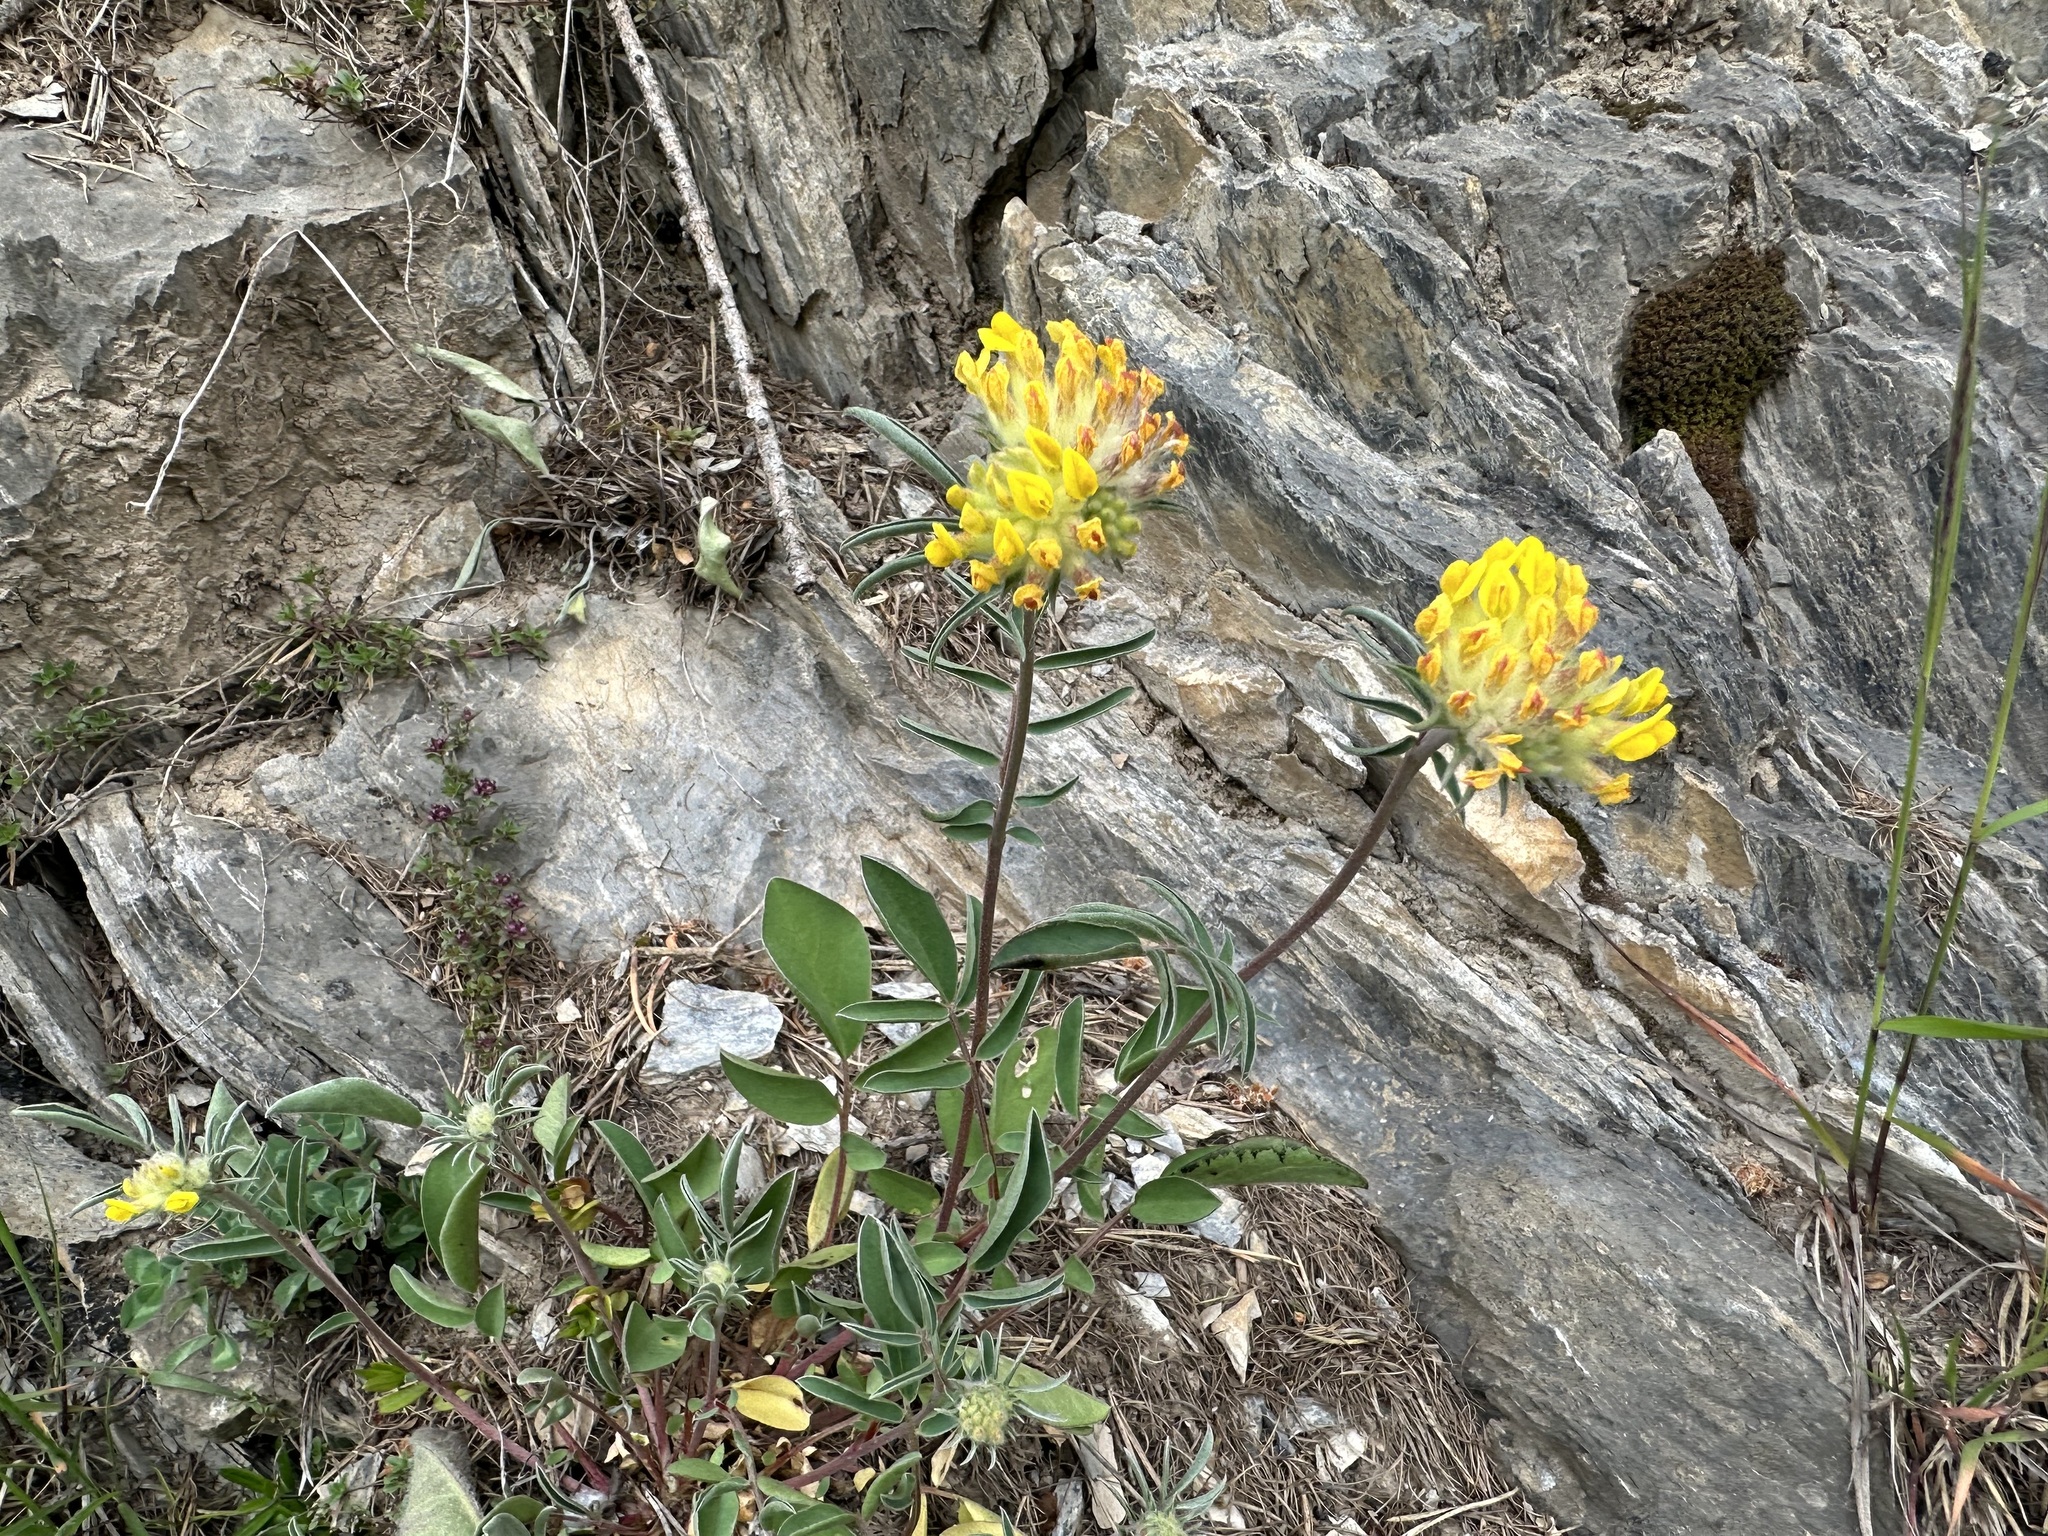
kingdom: Plantae
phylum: Tracheophyta
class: Magnoliopsida
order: Fabales
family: Fabaceae
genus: Anthyllis
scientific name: Anthyllis vulneraria
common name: Kidney vetch
